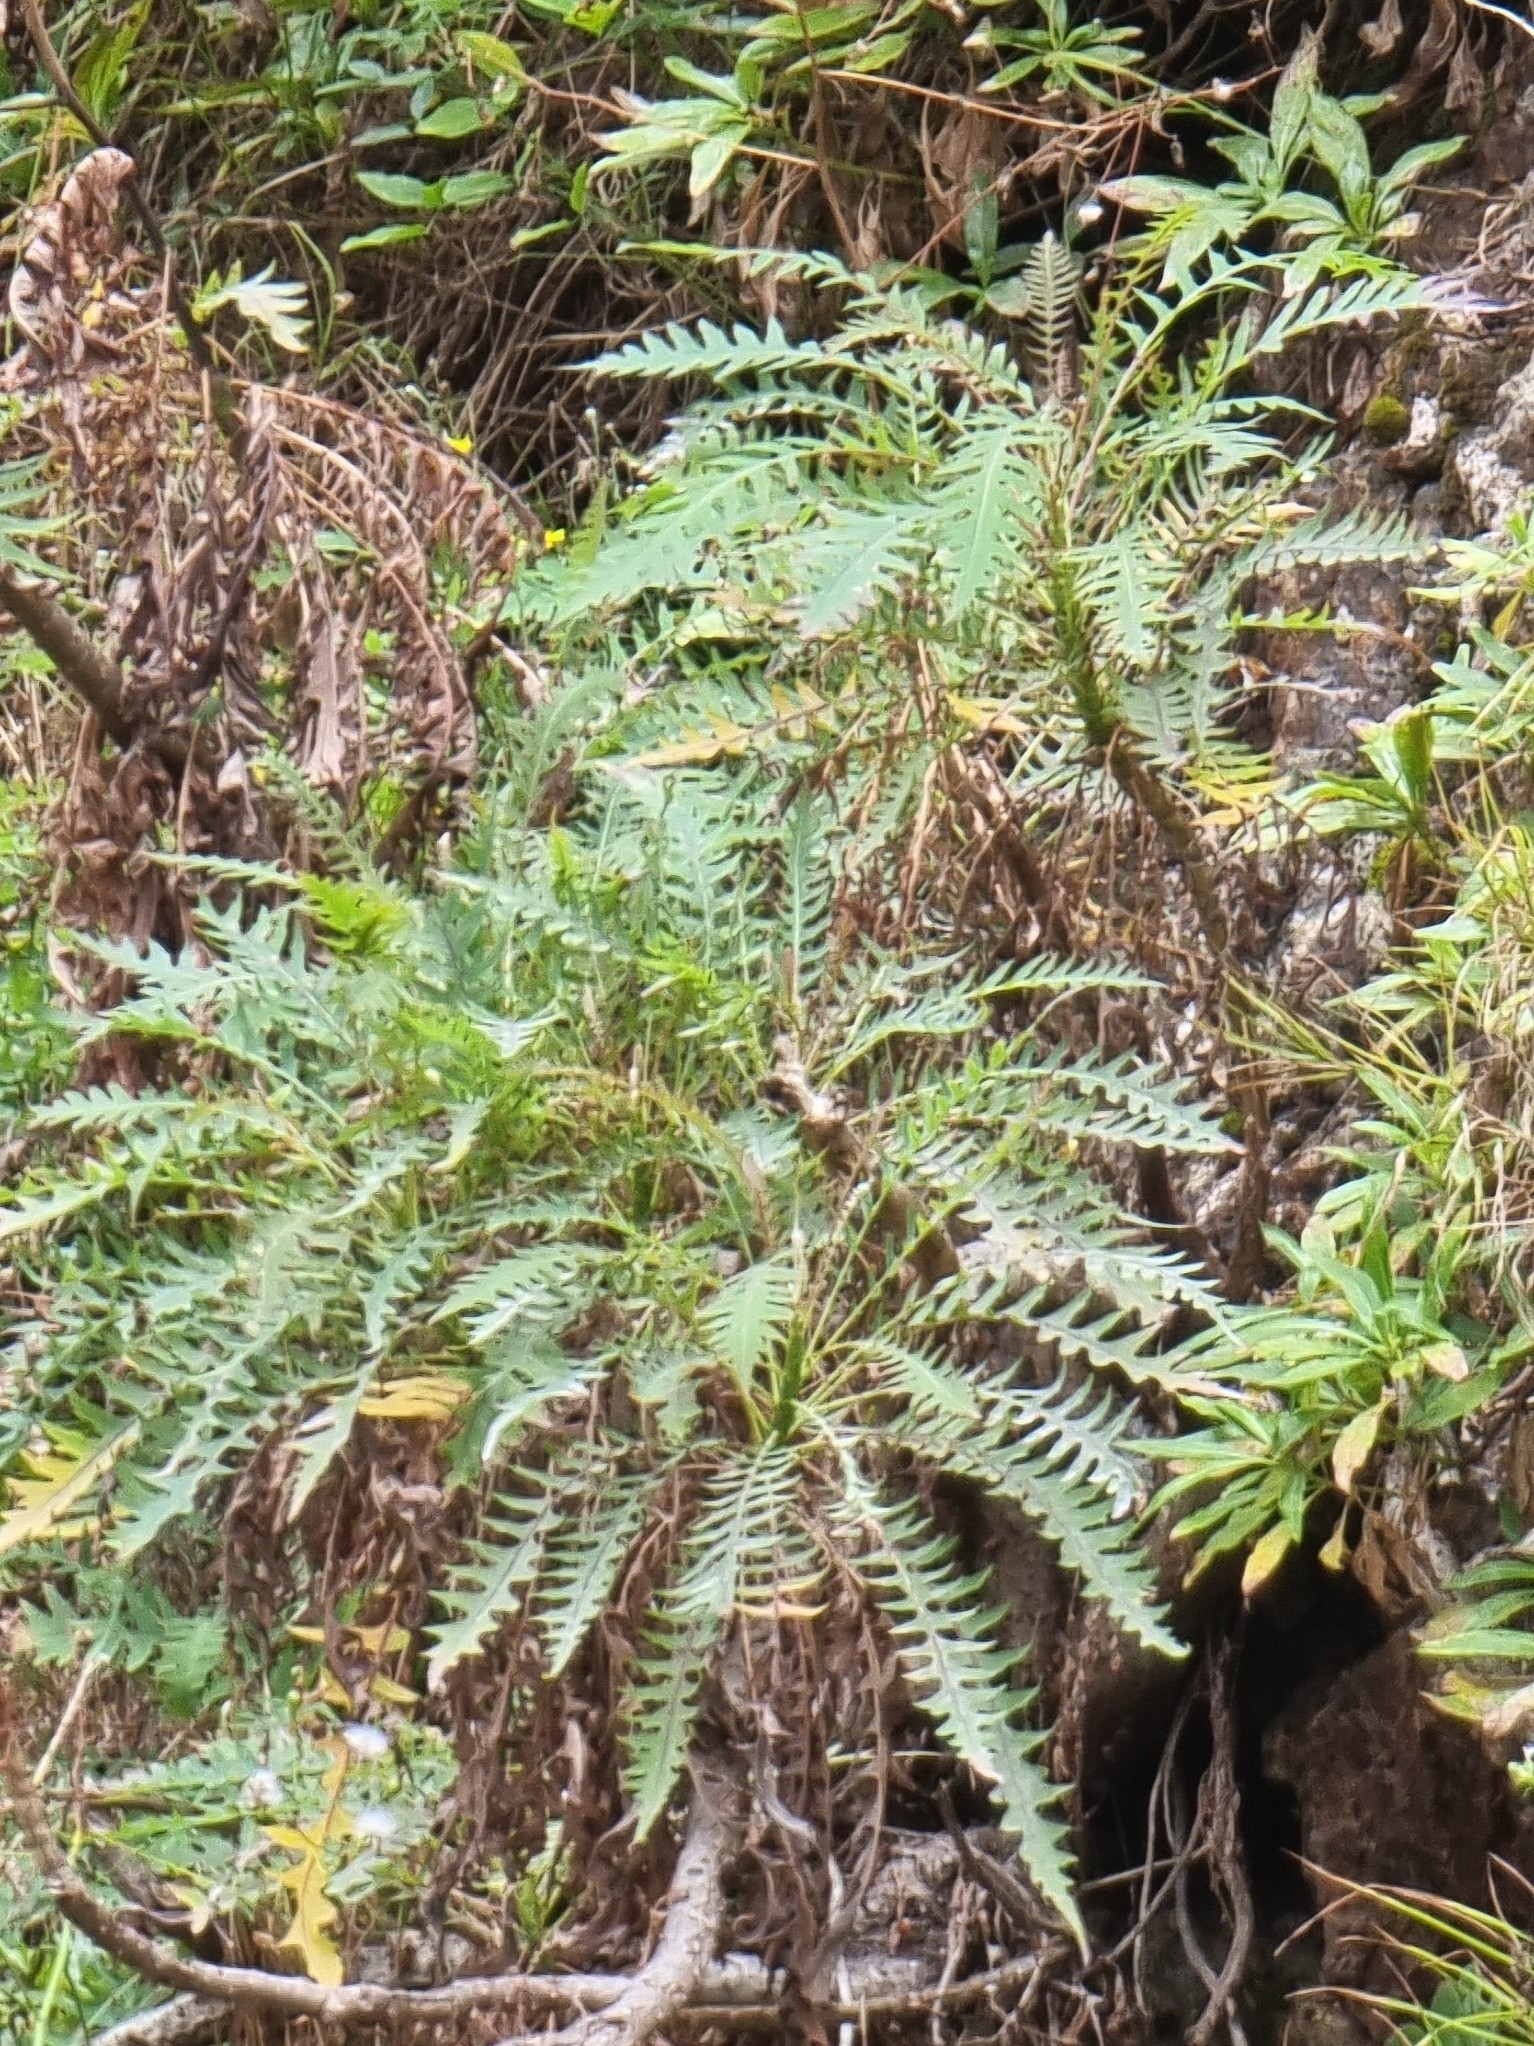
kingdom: Plantae
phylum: Tracheophyta
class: Magnoliopsida
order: Asterales
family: Asteraceae
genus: Sonchus
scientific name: Sonchus pinnatus
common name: Wing-leaved sow-thistle
